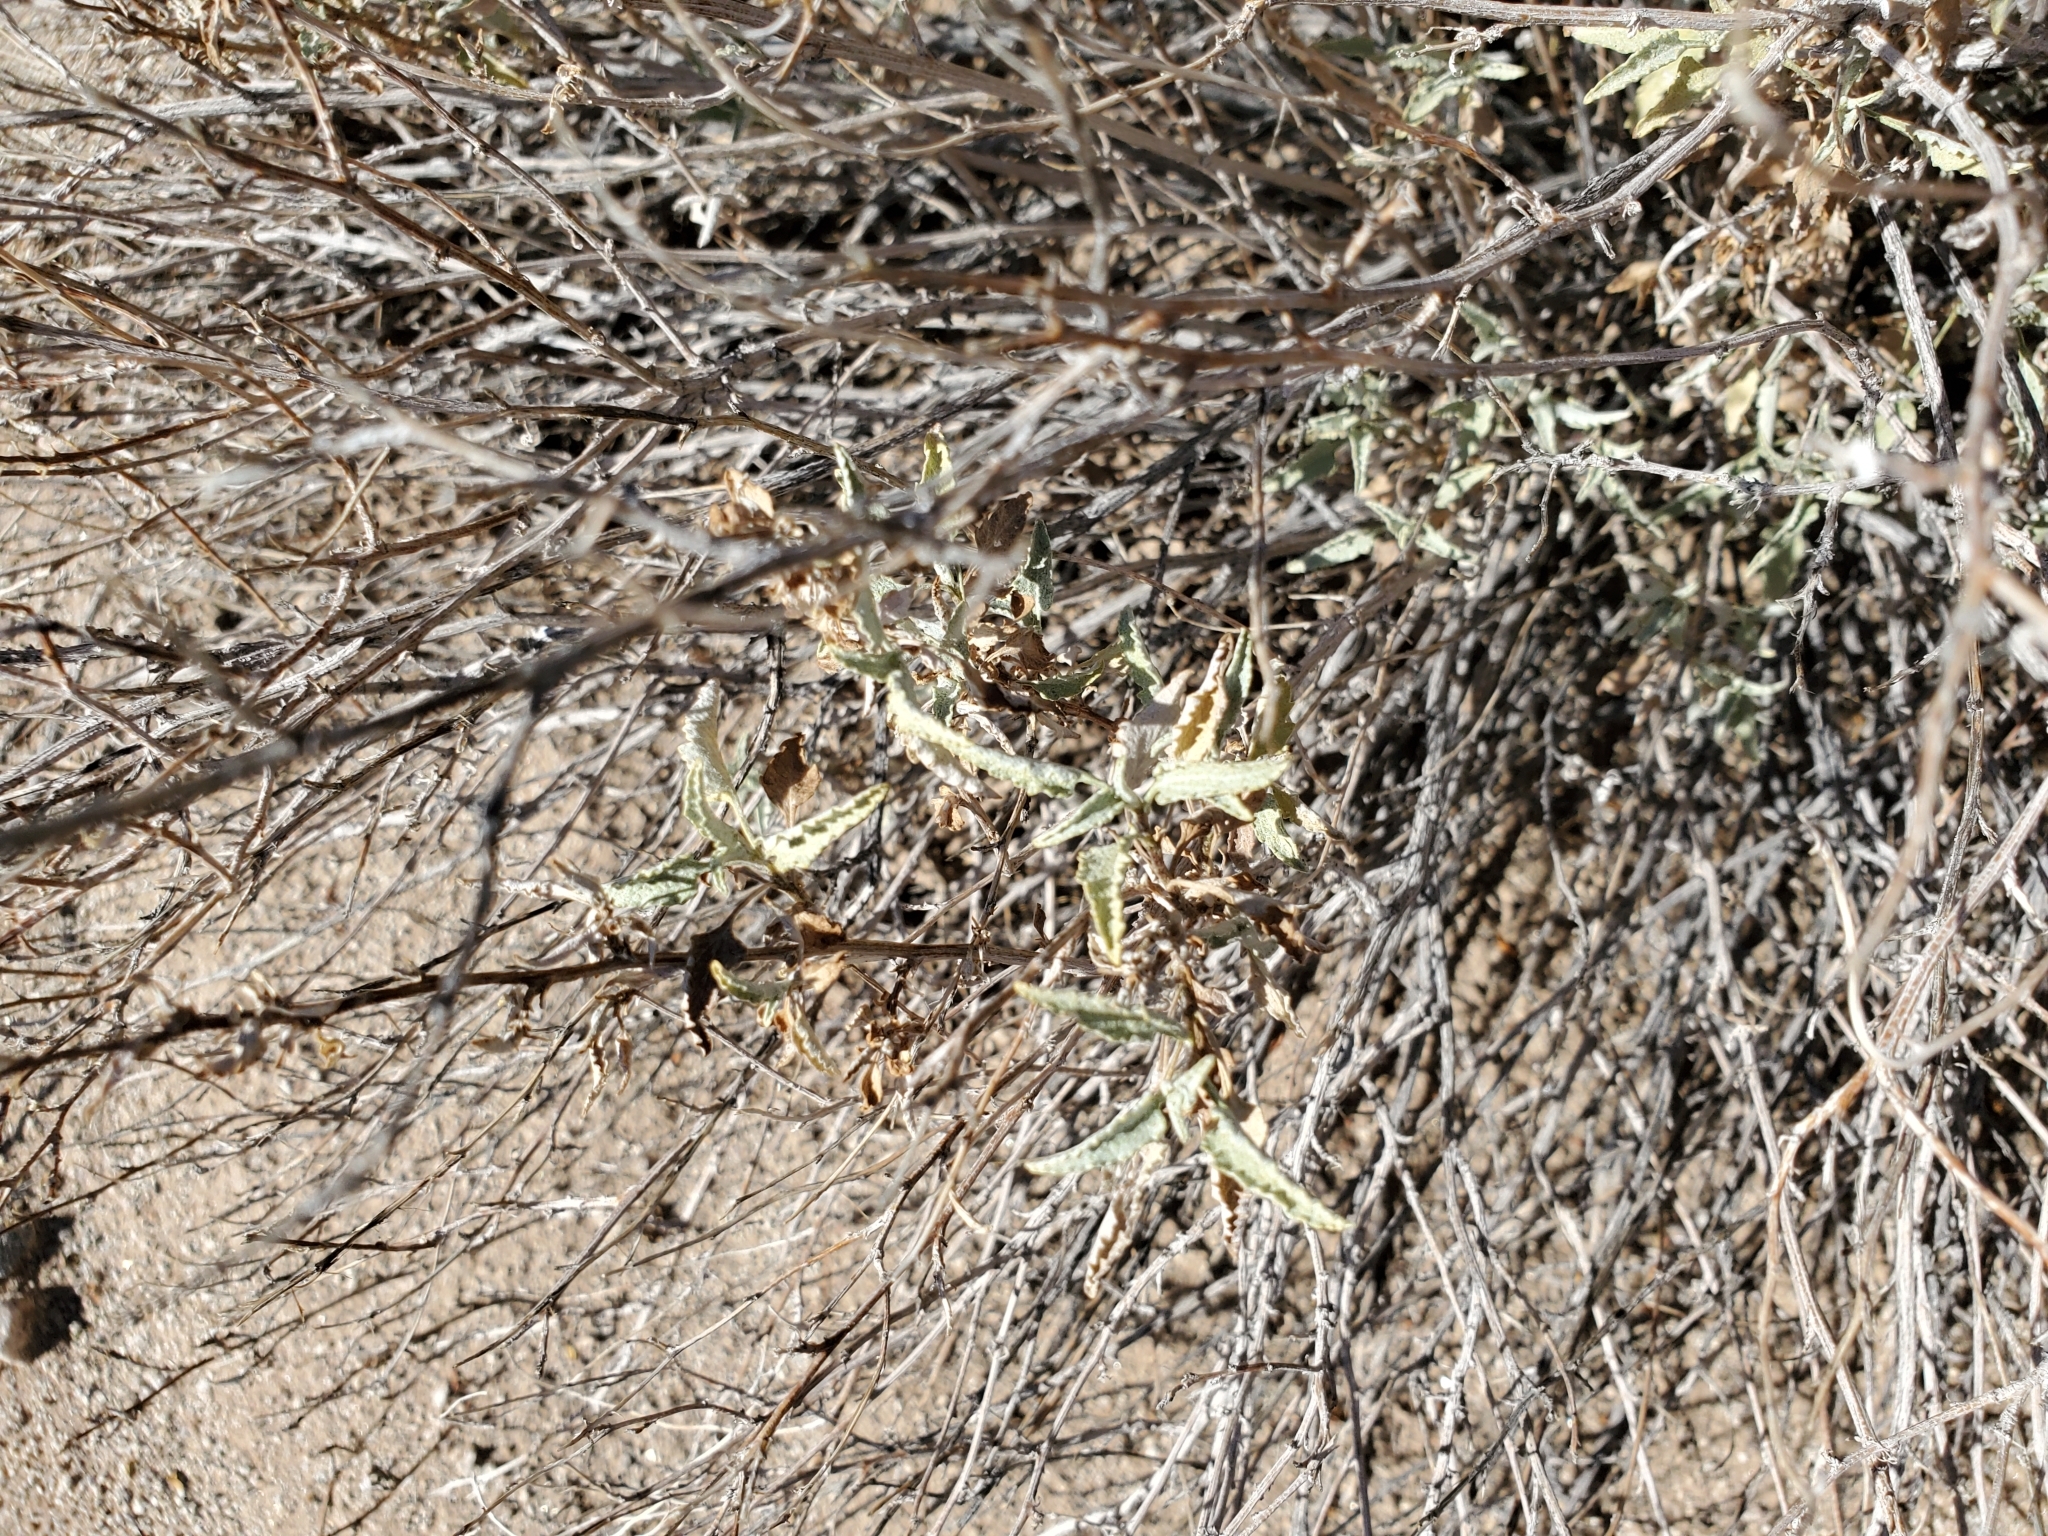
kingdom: Plantae
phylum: Tracheophyta
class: Magnoliopsida
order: Asterales
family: Asteraceae
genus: Ambrosia
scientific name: Ambrosia deltoidea
